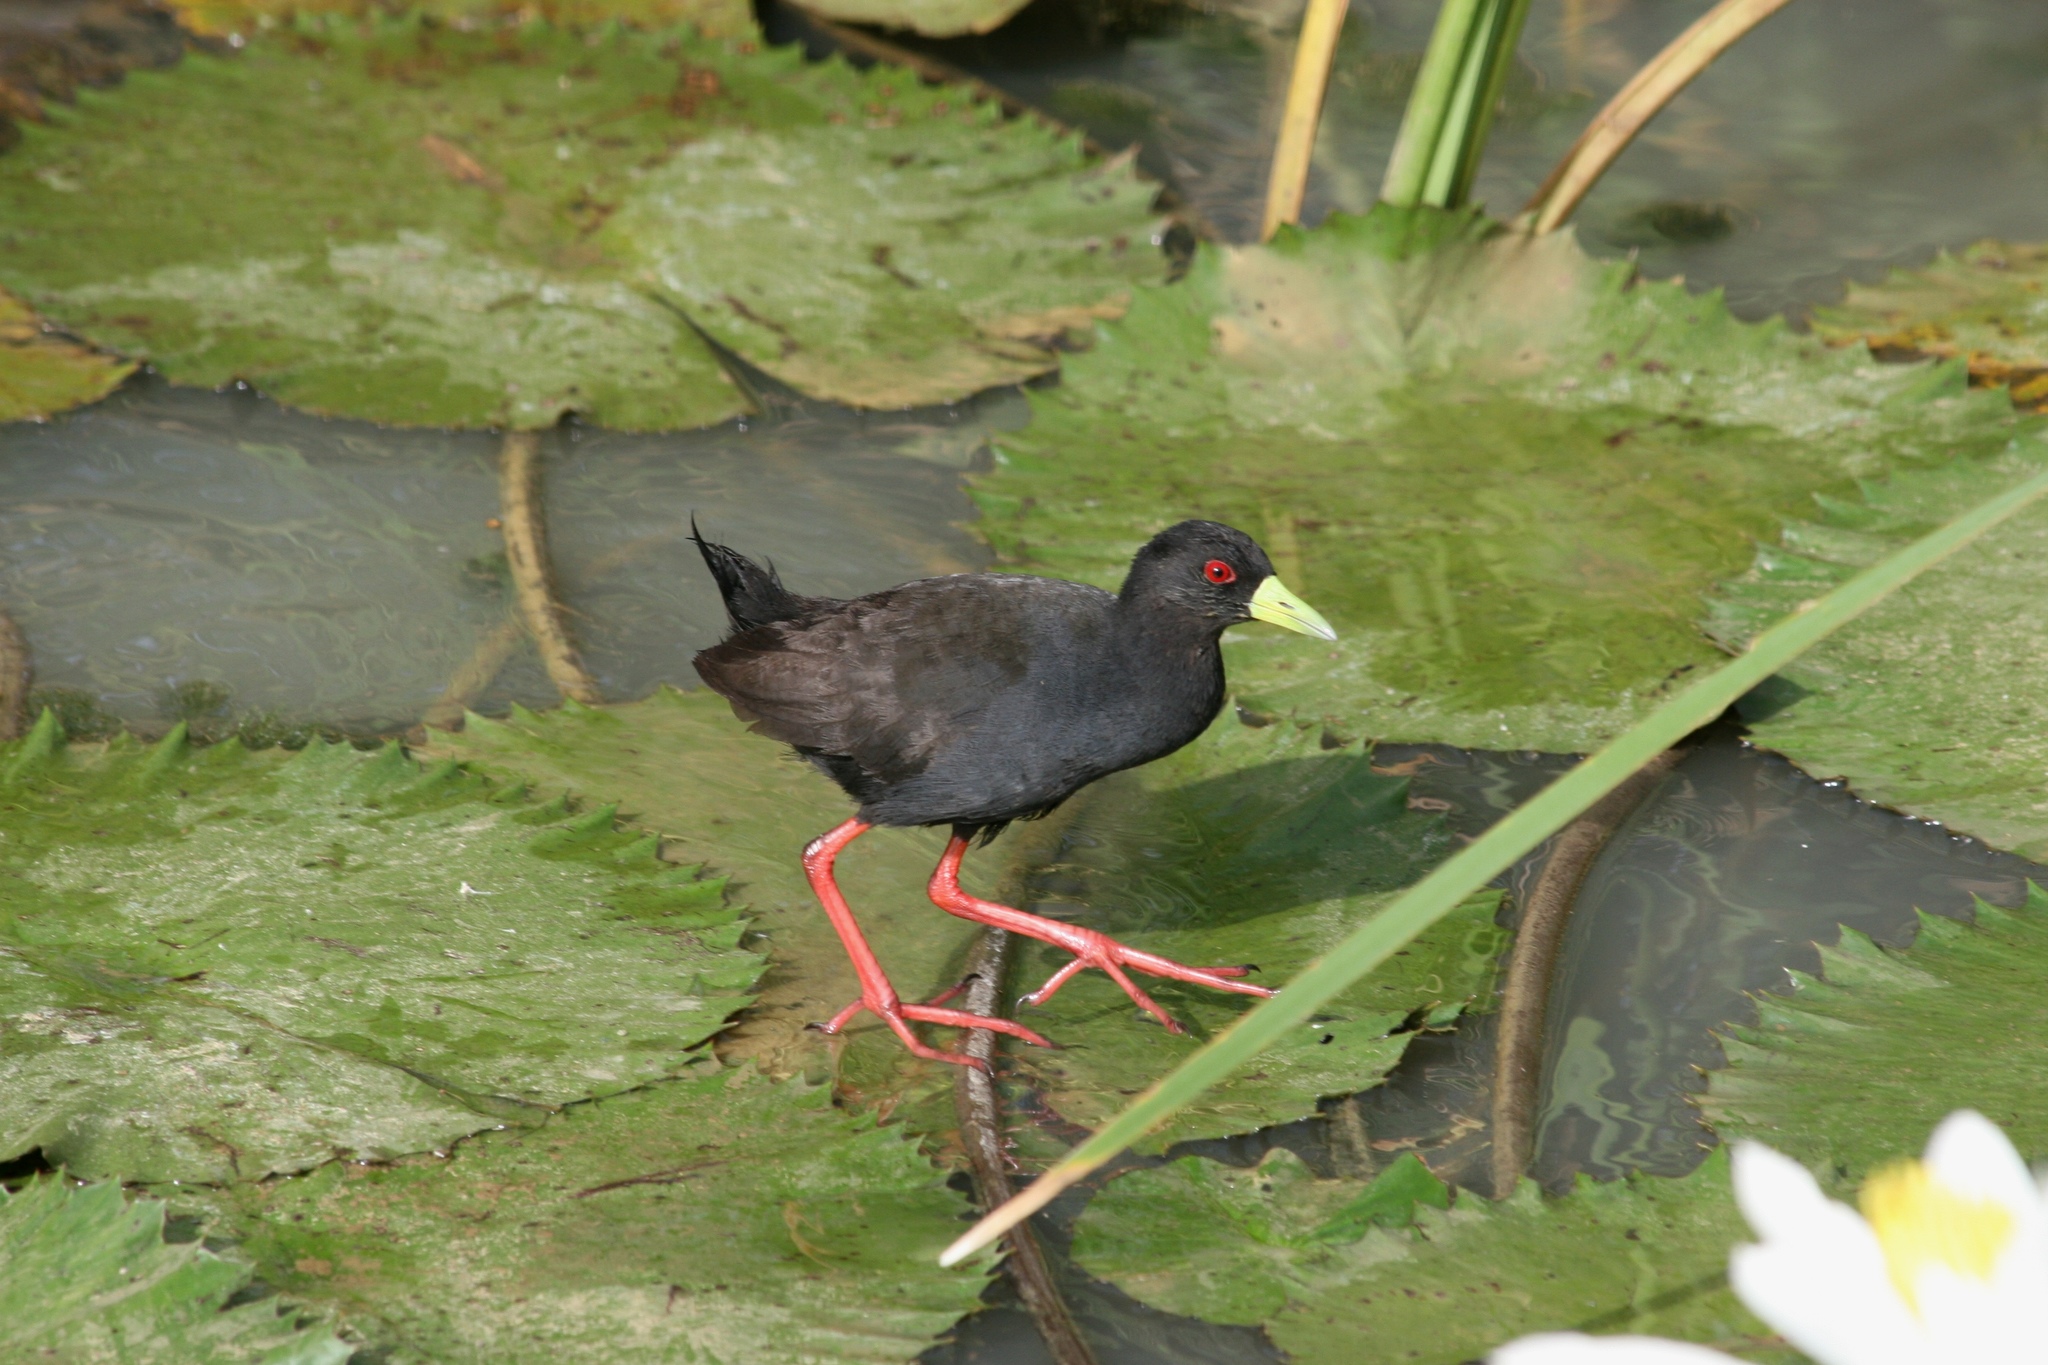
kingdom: Animalia
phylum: Chordata
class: Aves
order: Gruiformes
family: Rallidae
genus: Amaurornis
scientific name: Amaurornis flavirostra
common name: Black crake
